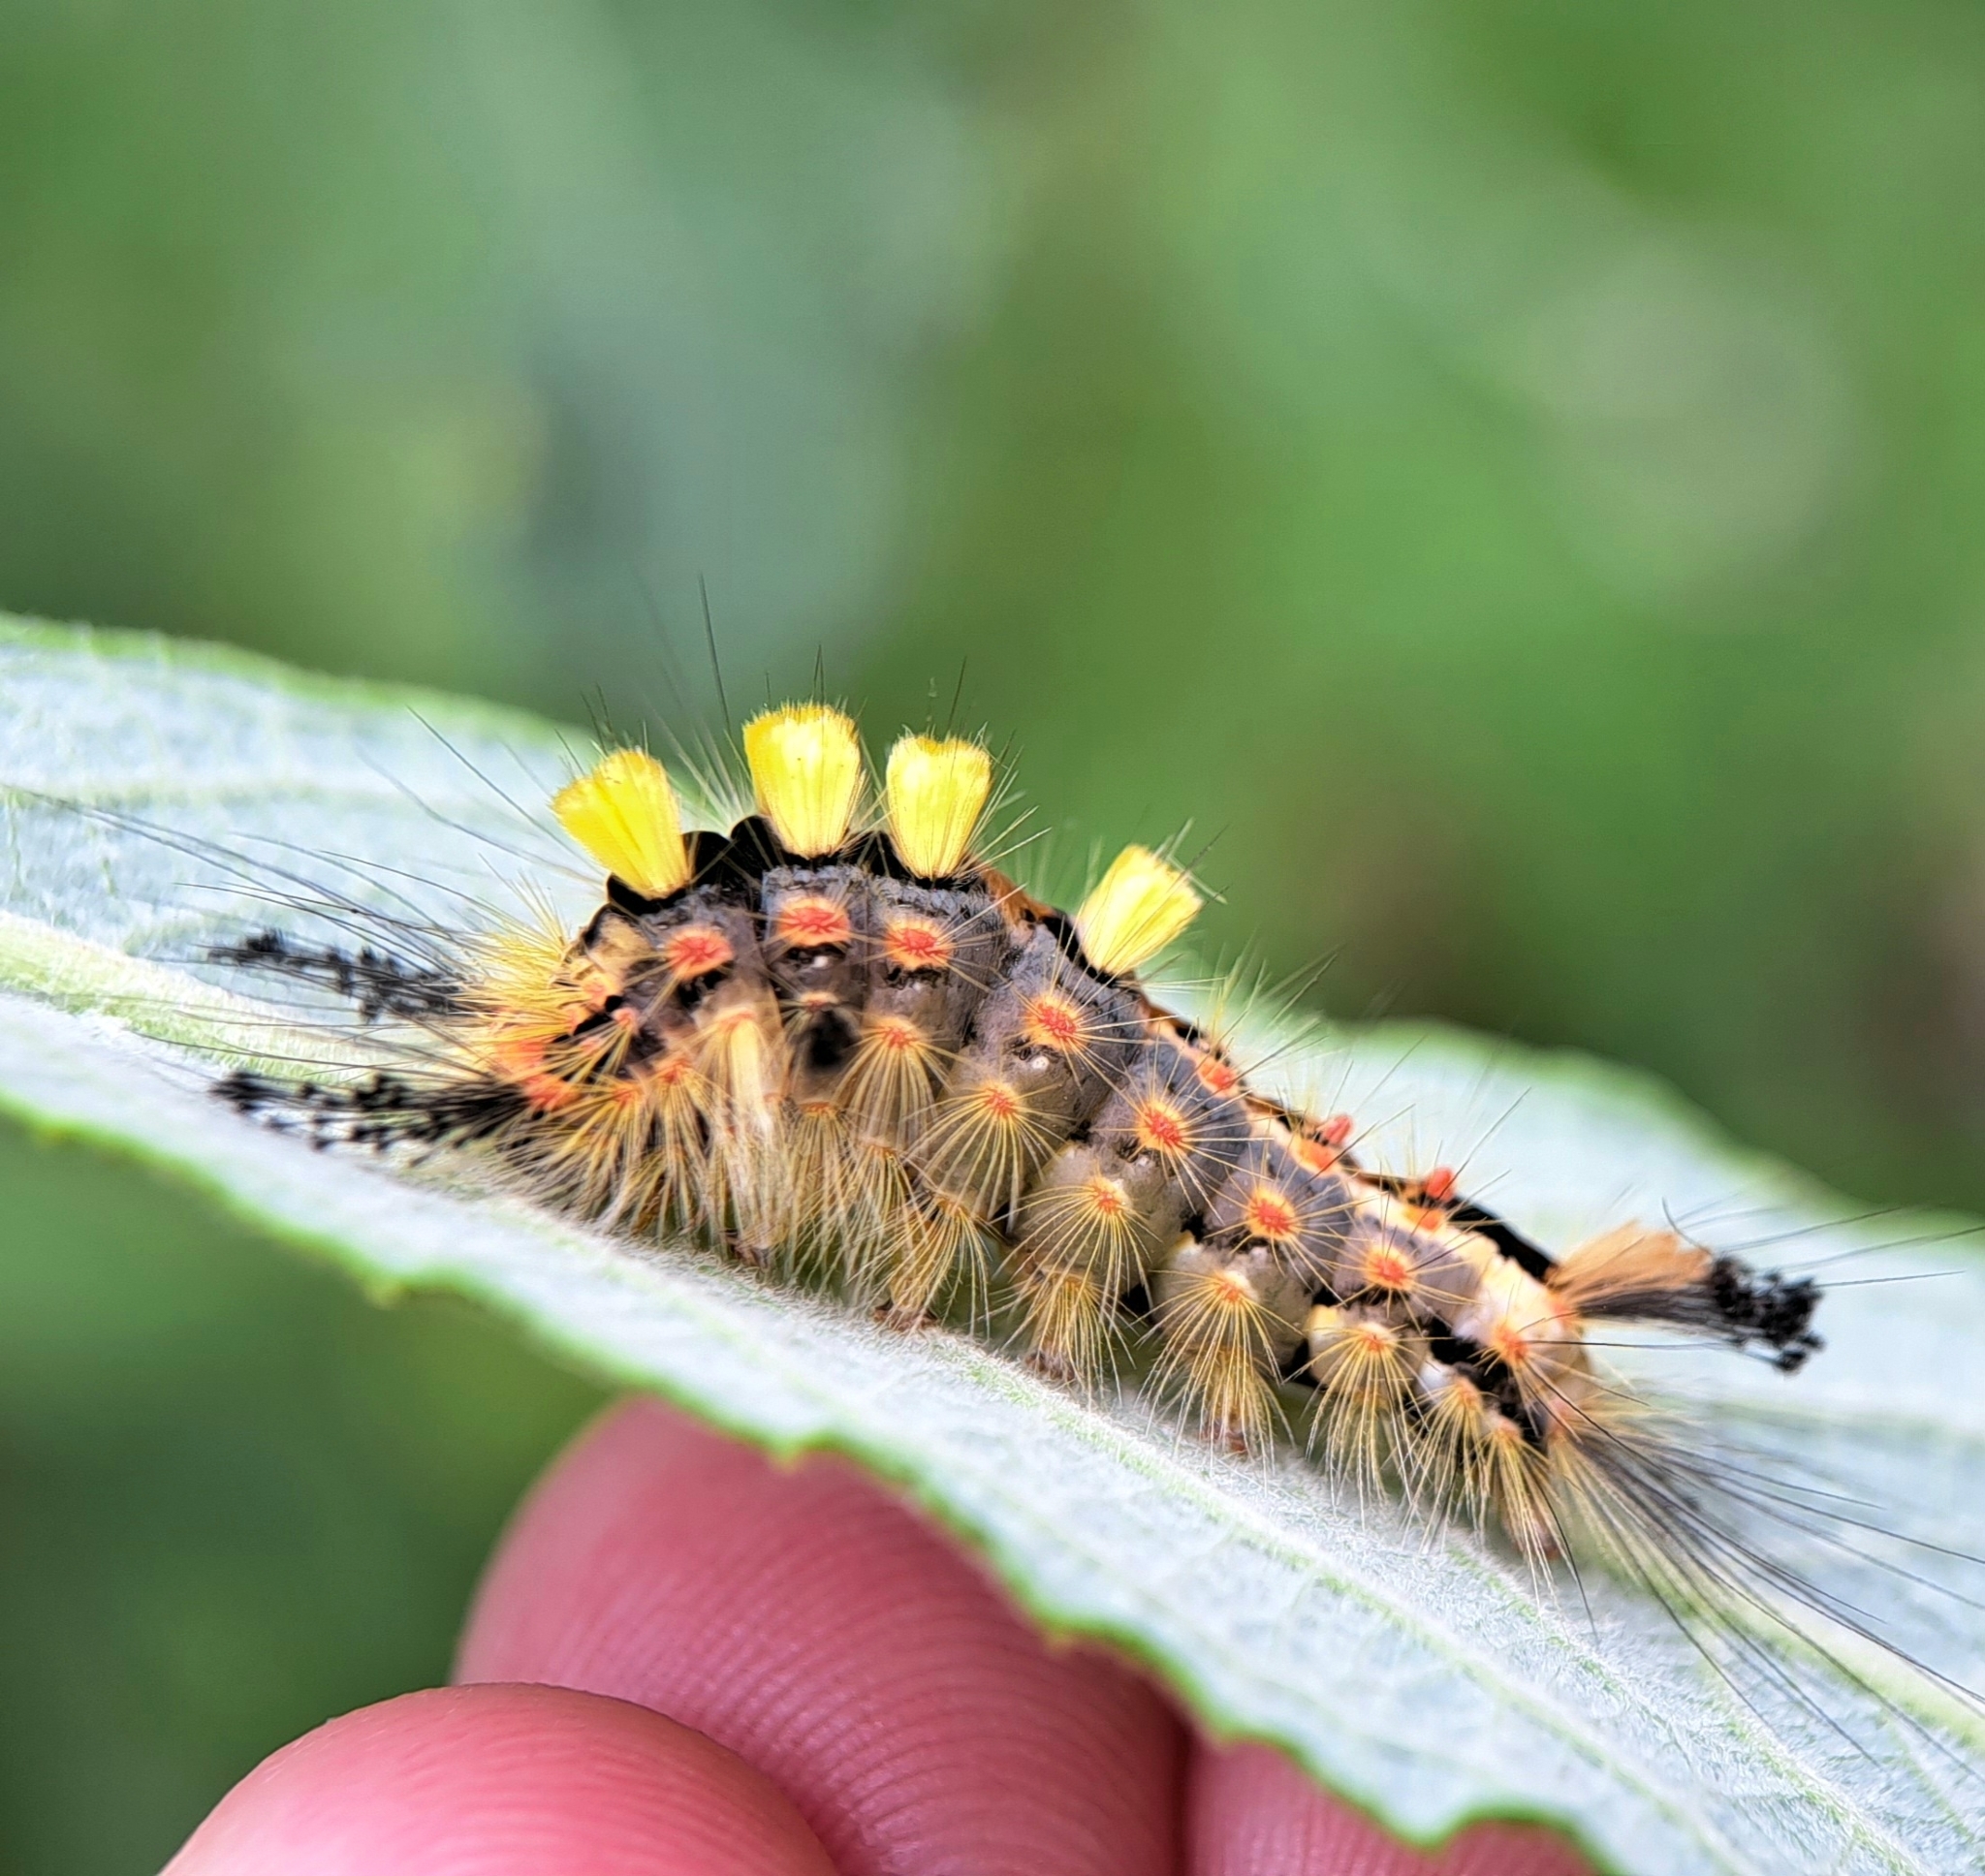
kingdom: Animalia
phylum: Arthropoda
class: Insecta
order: Lepidoptera
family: Erebidae
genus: Orgyia
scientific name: Orgyia antiqua
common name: Vapourer
